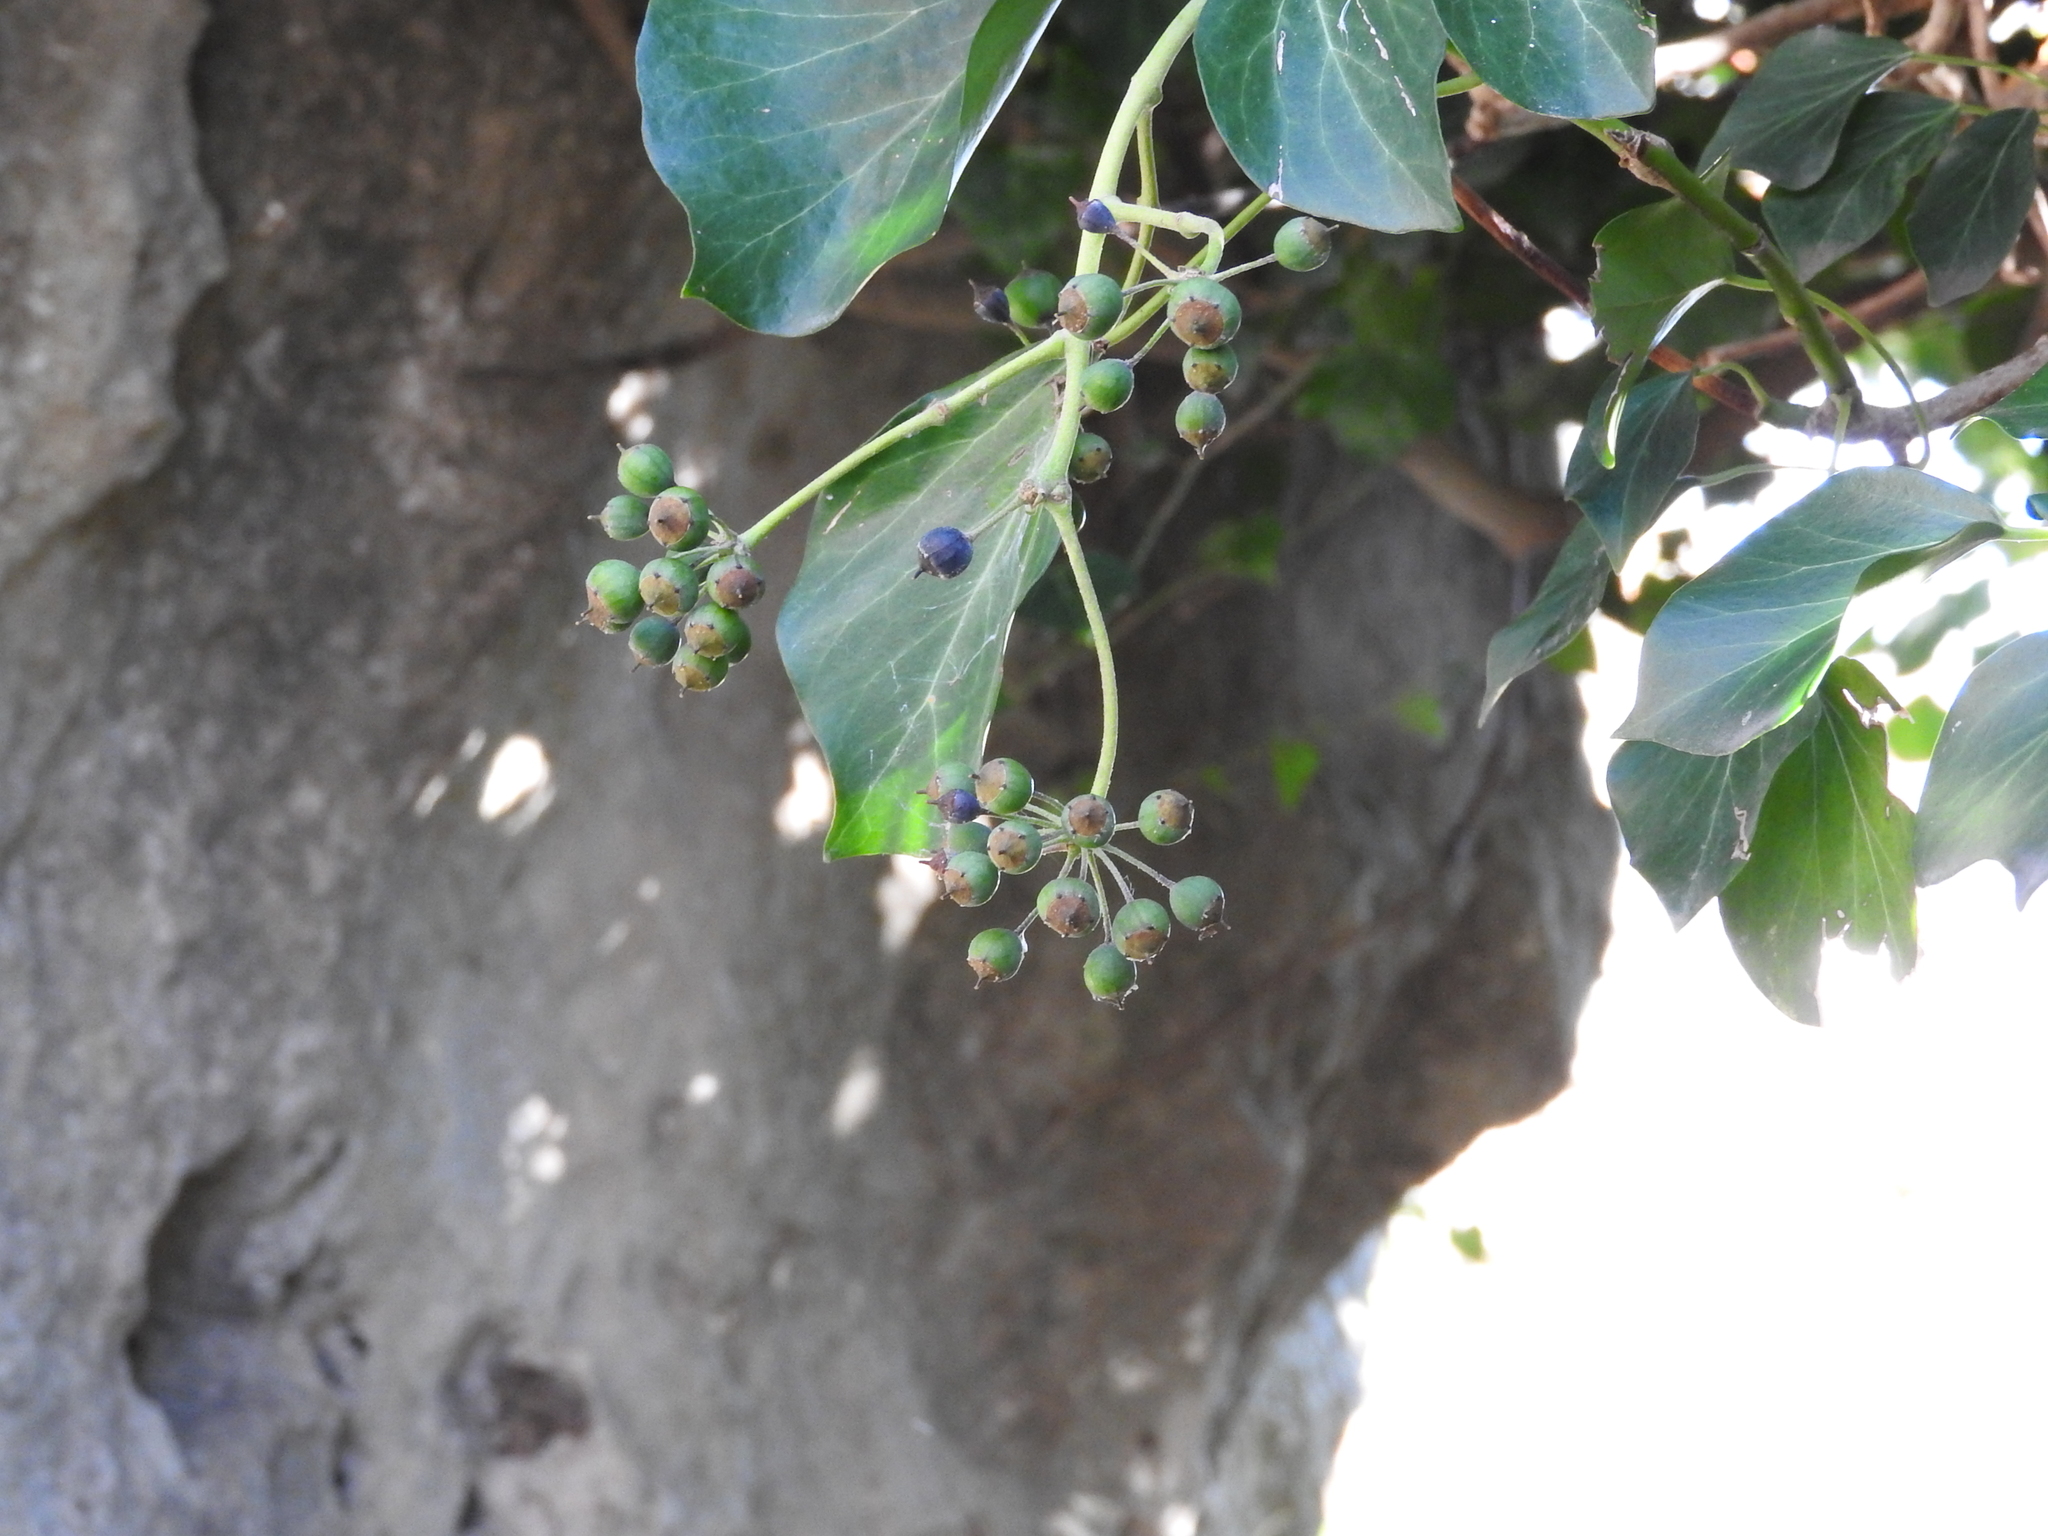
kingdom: Plantae
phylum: Tracheophyta
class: Magnoliopsida
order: Apiales
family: Araliaceae
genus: Hedera
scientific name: Hedera helix
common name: Ivy
